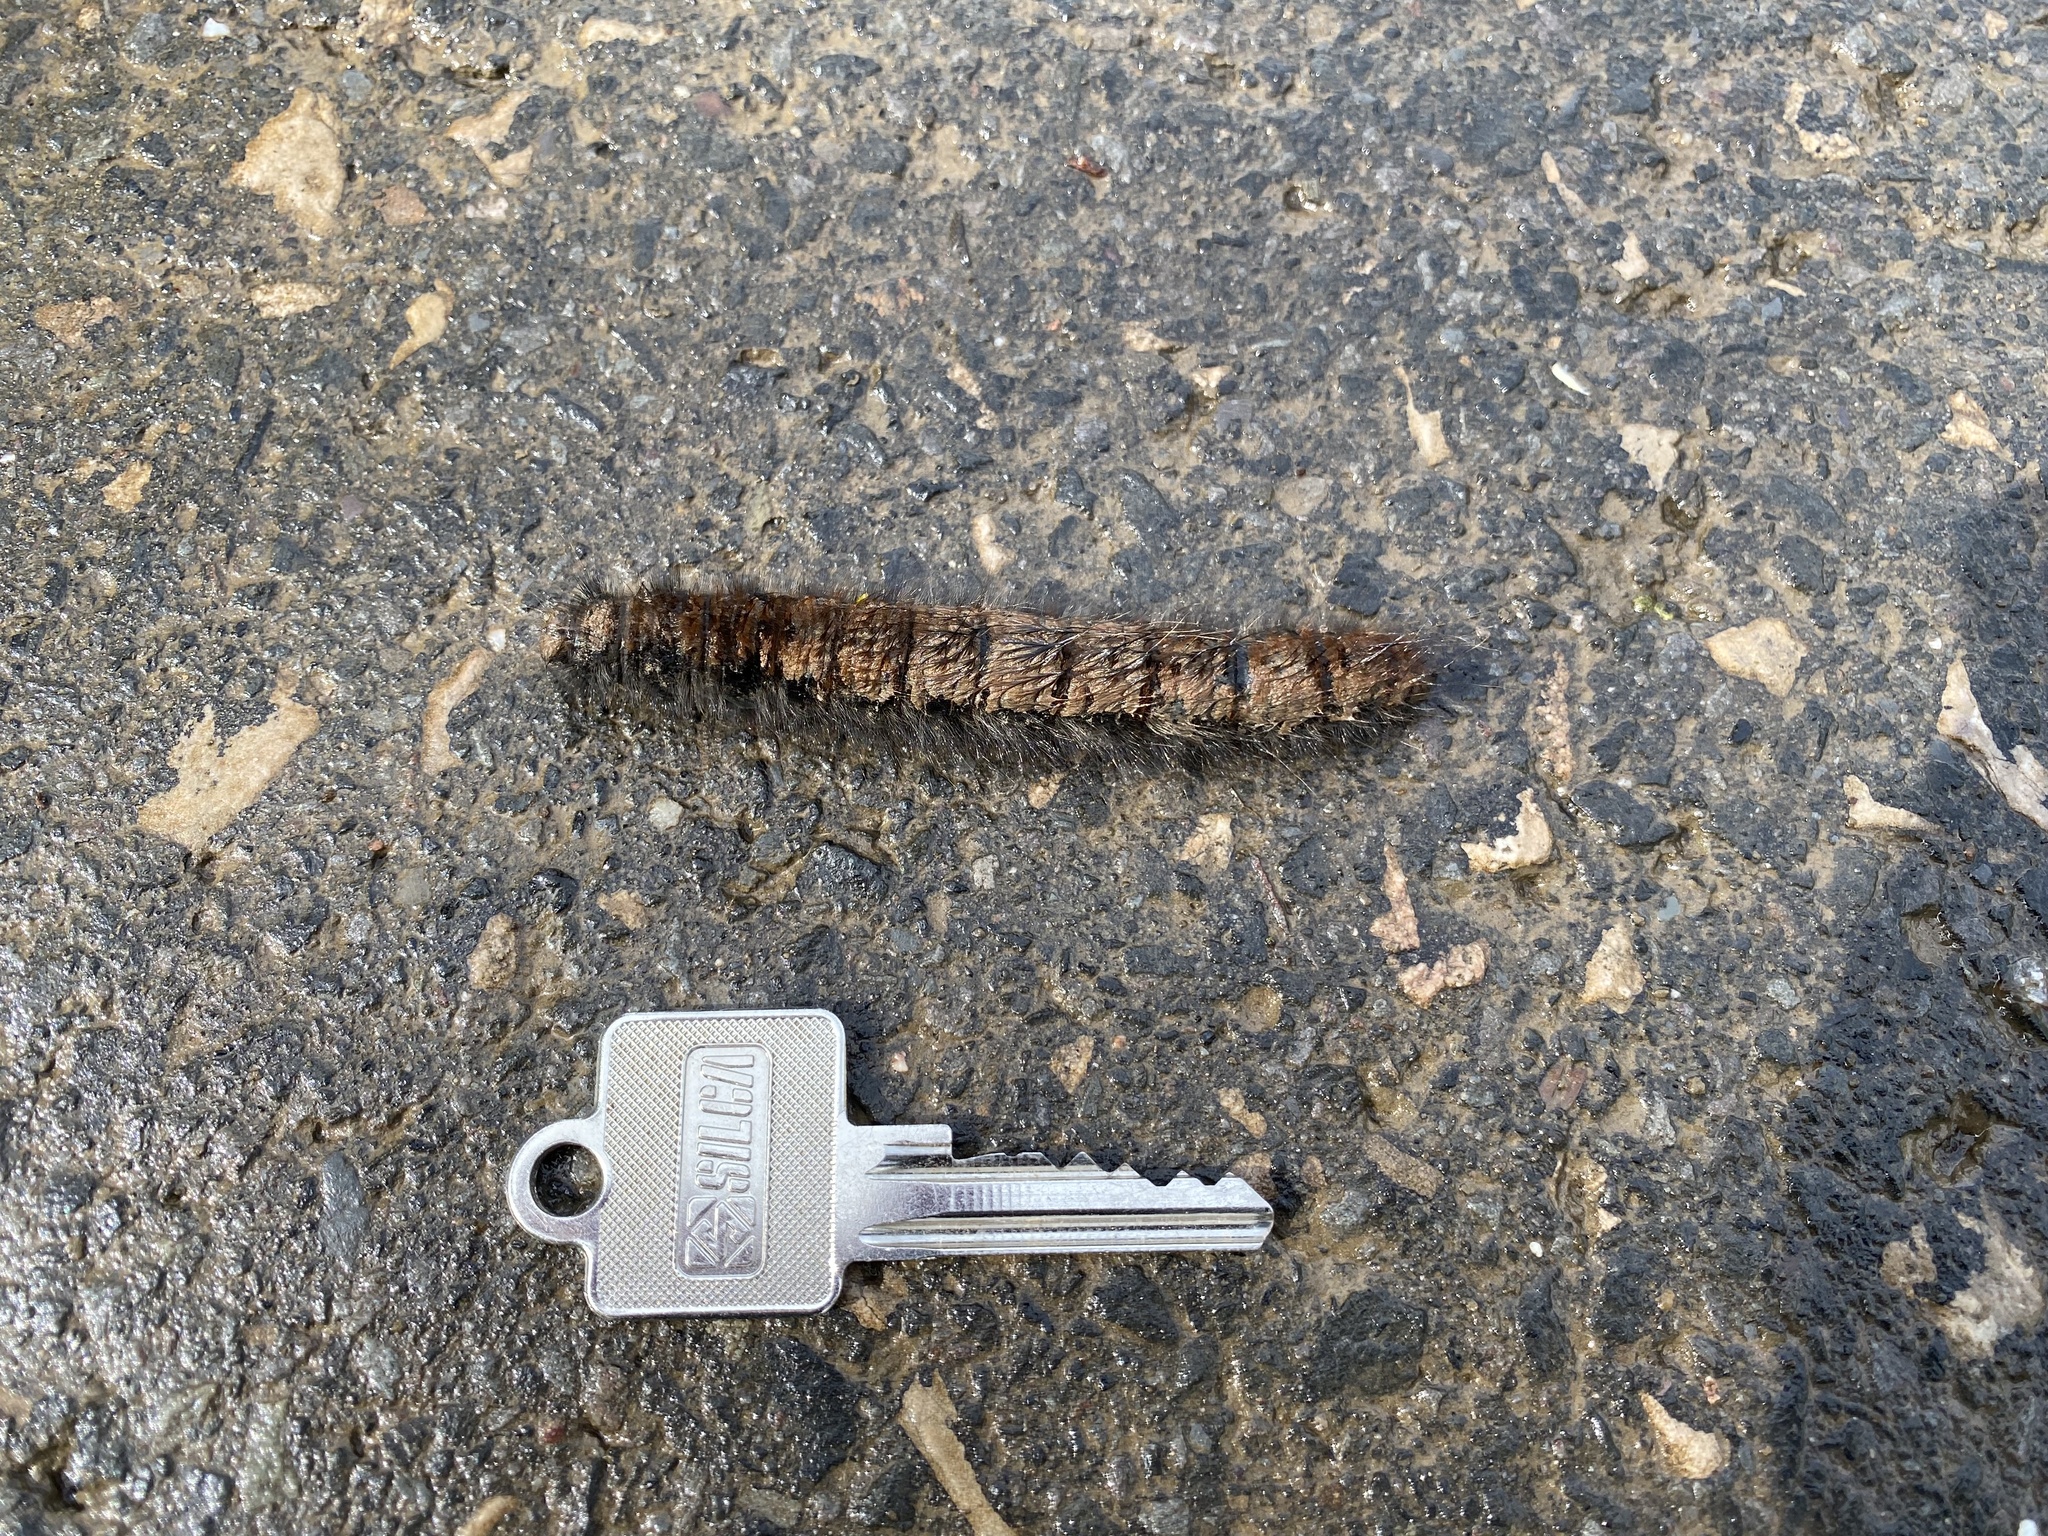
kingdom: Animalia
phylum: Arthropoda
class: Insecta
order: Lepidoptera
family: Lasiocampidae
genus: Macrothylacia
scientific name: Macrothylacia rubi
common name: Fox moth
